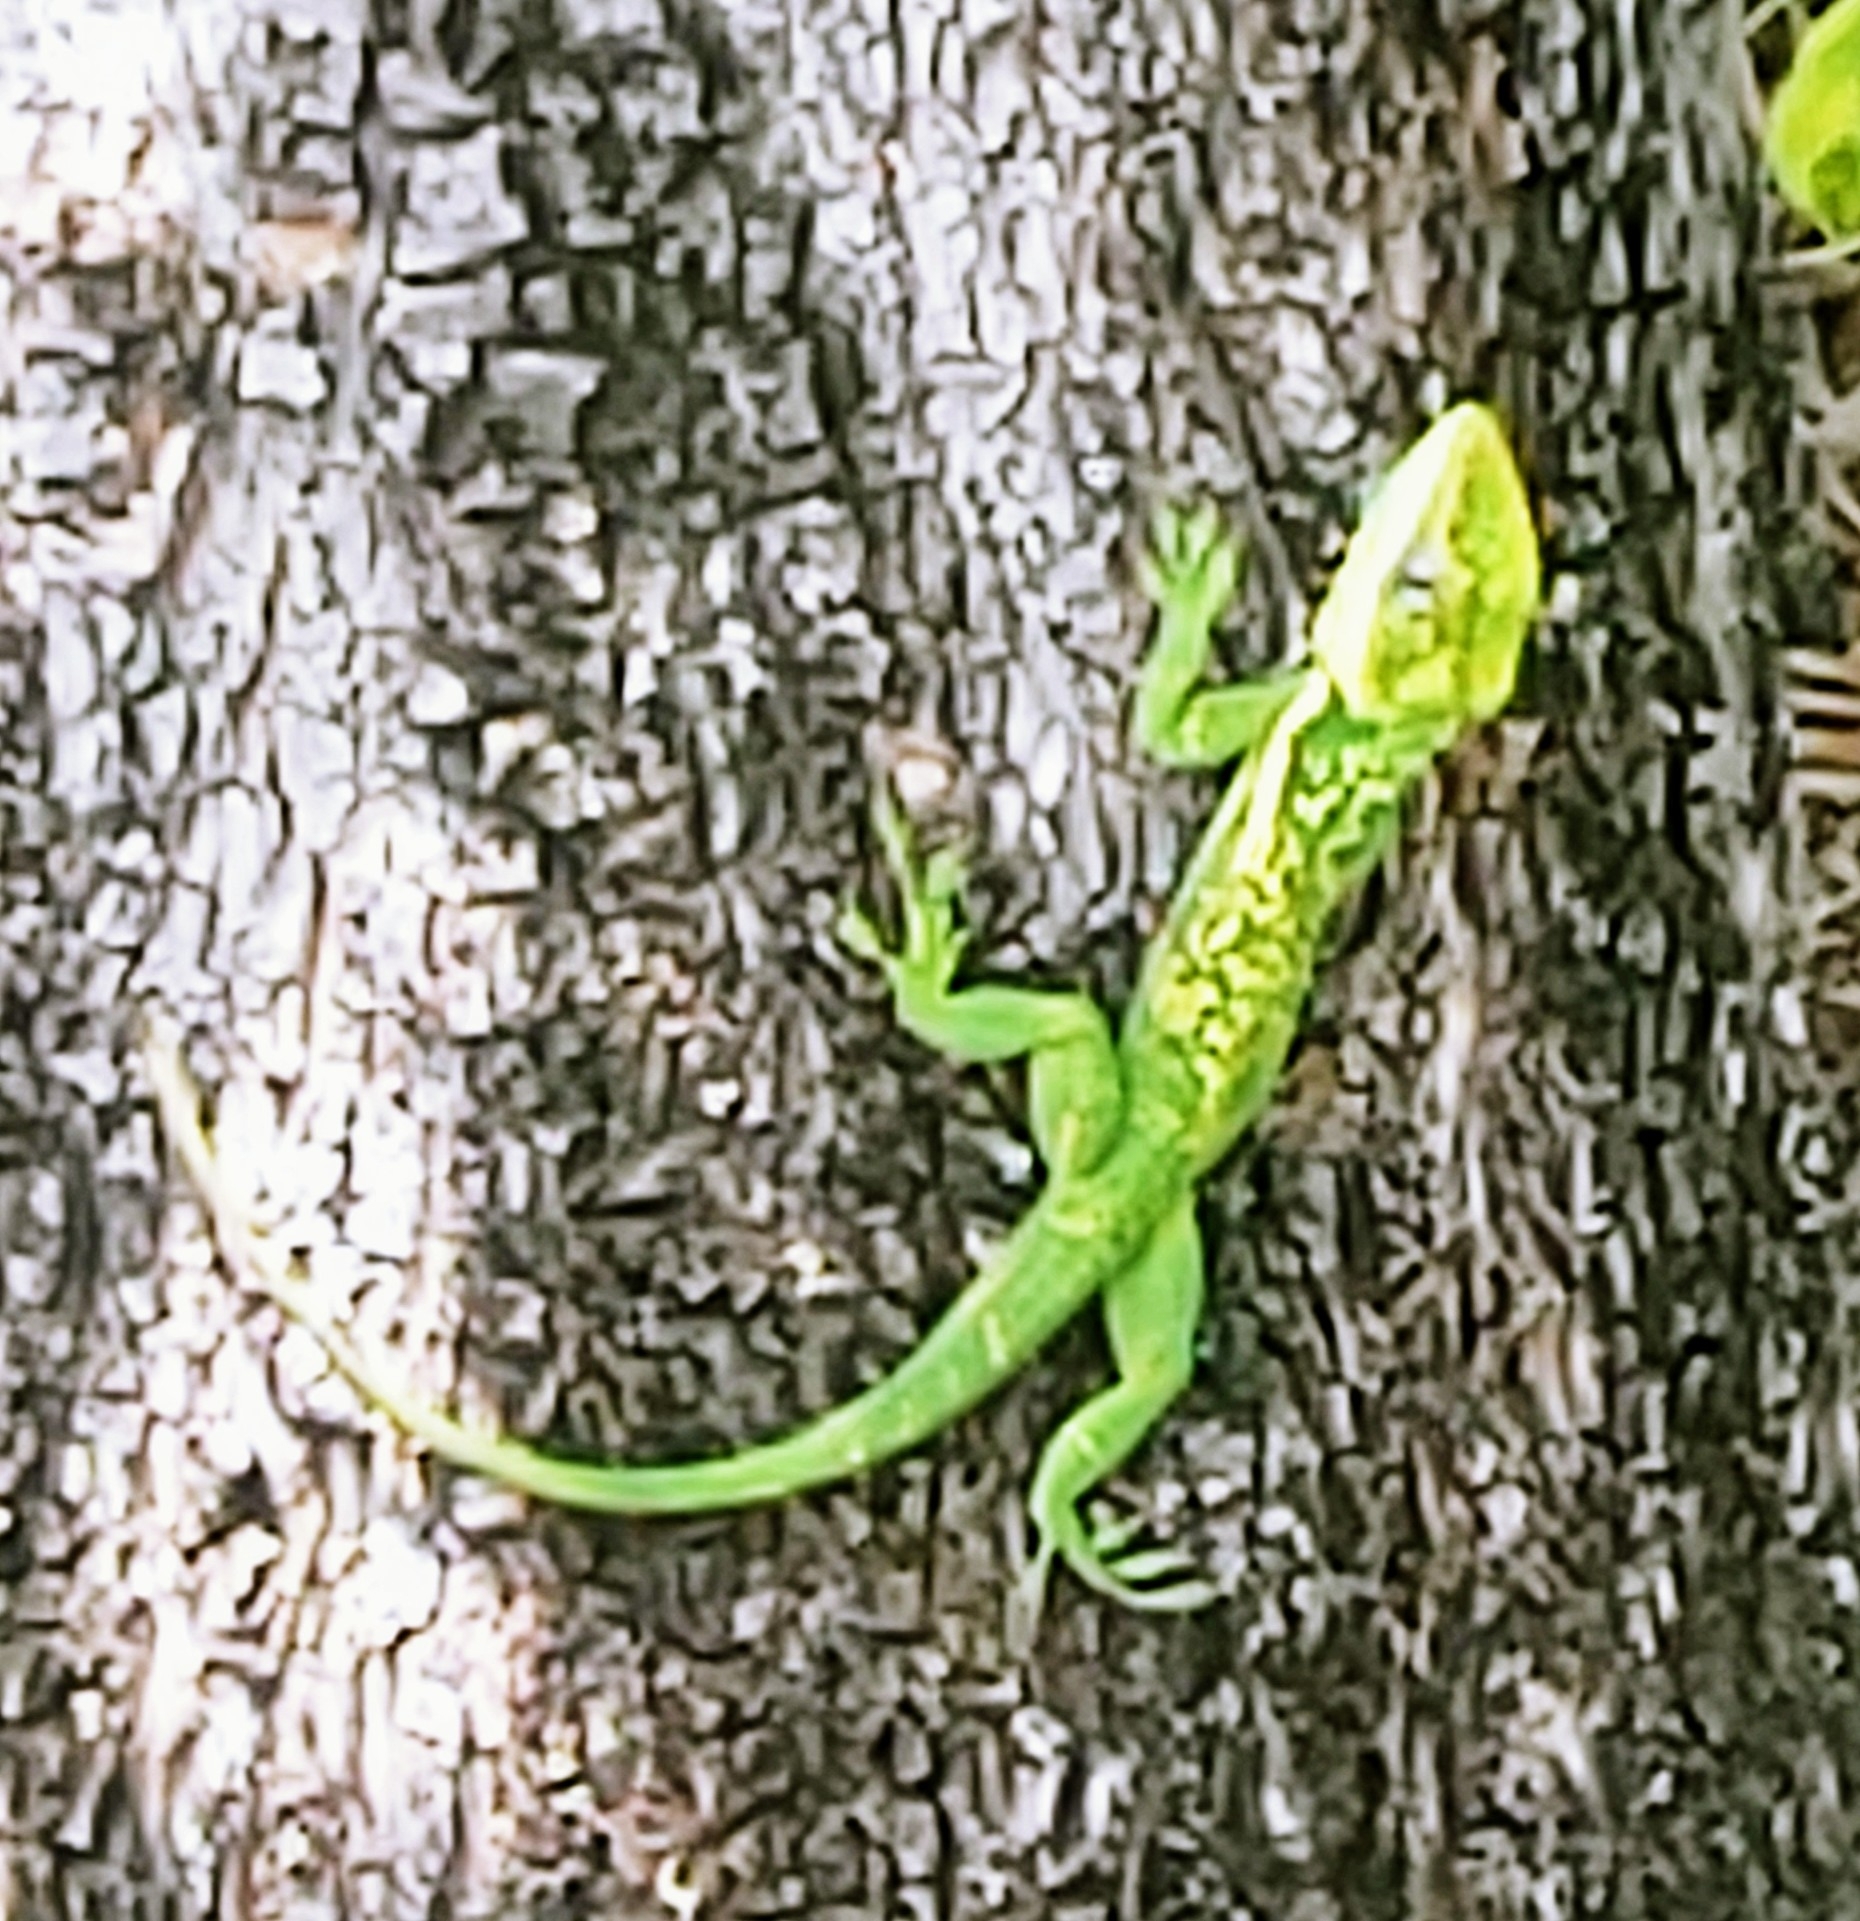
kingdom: Animalia
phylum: Chordata
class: Squamata
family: Dactyloidae
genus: Anolis
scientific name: Anolis equestris
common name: Knight anole
